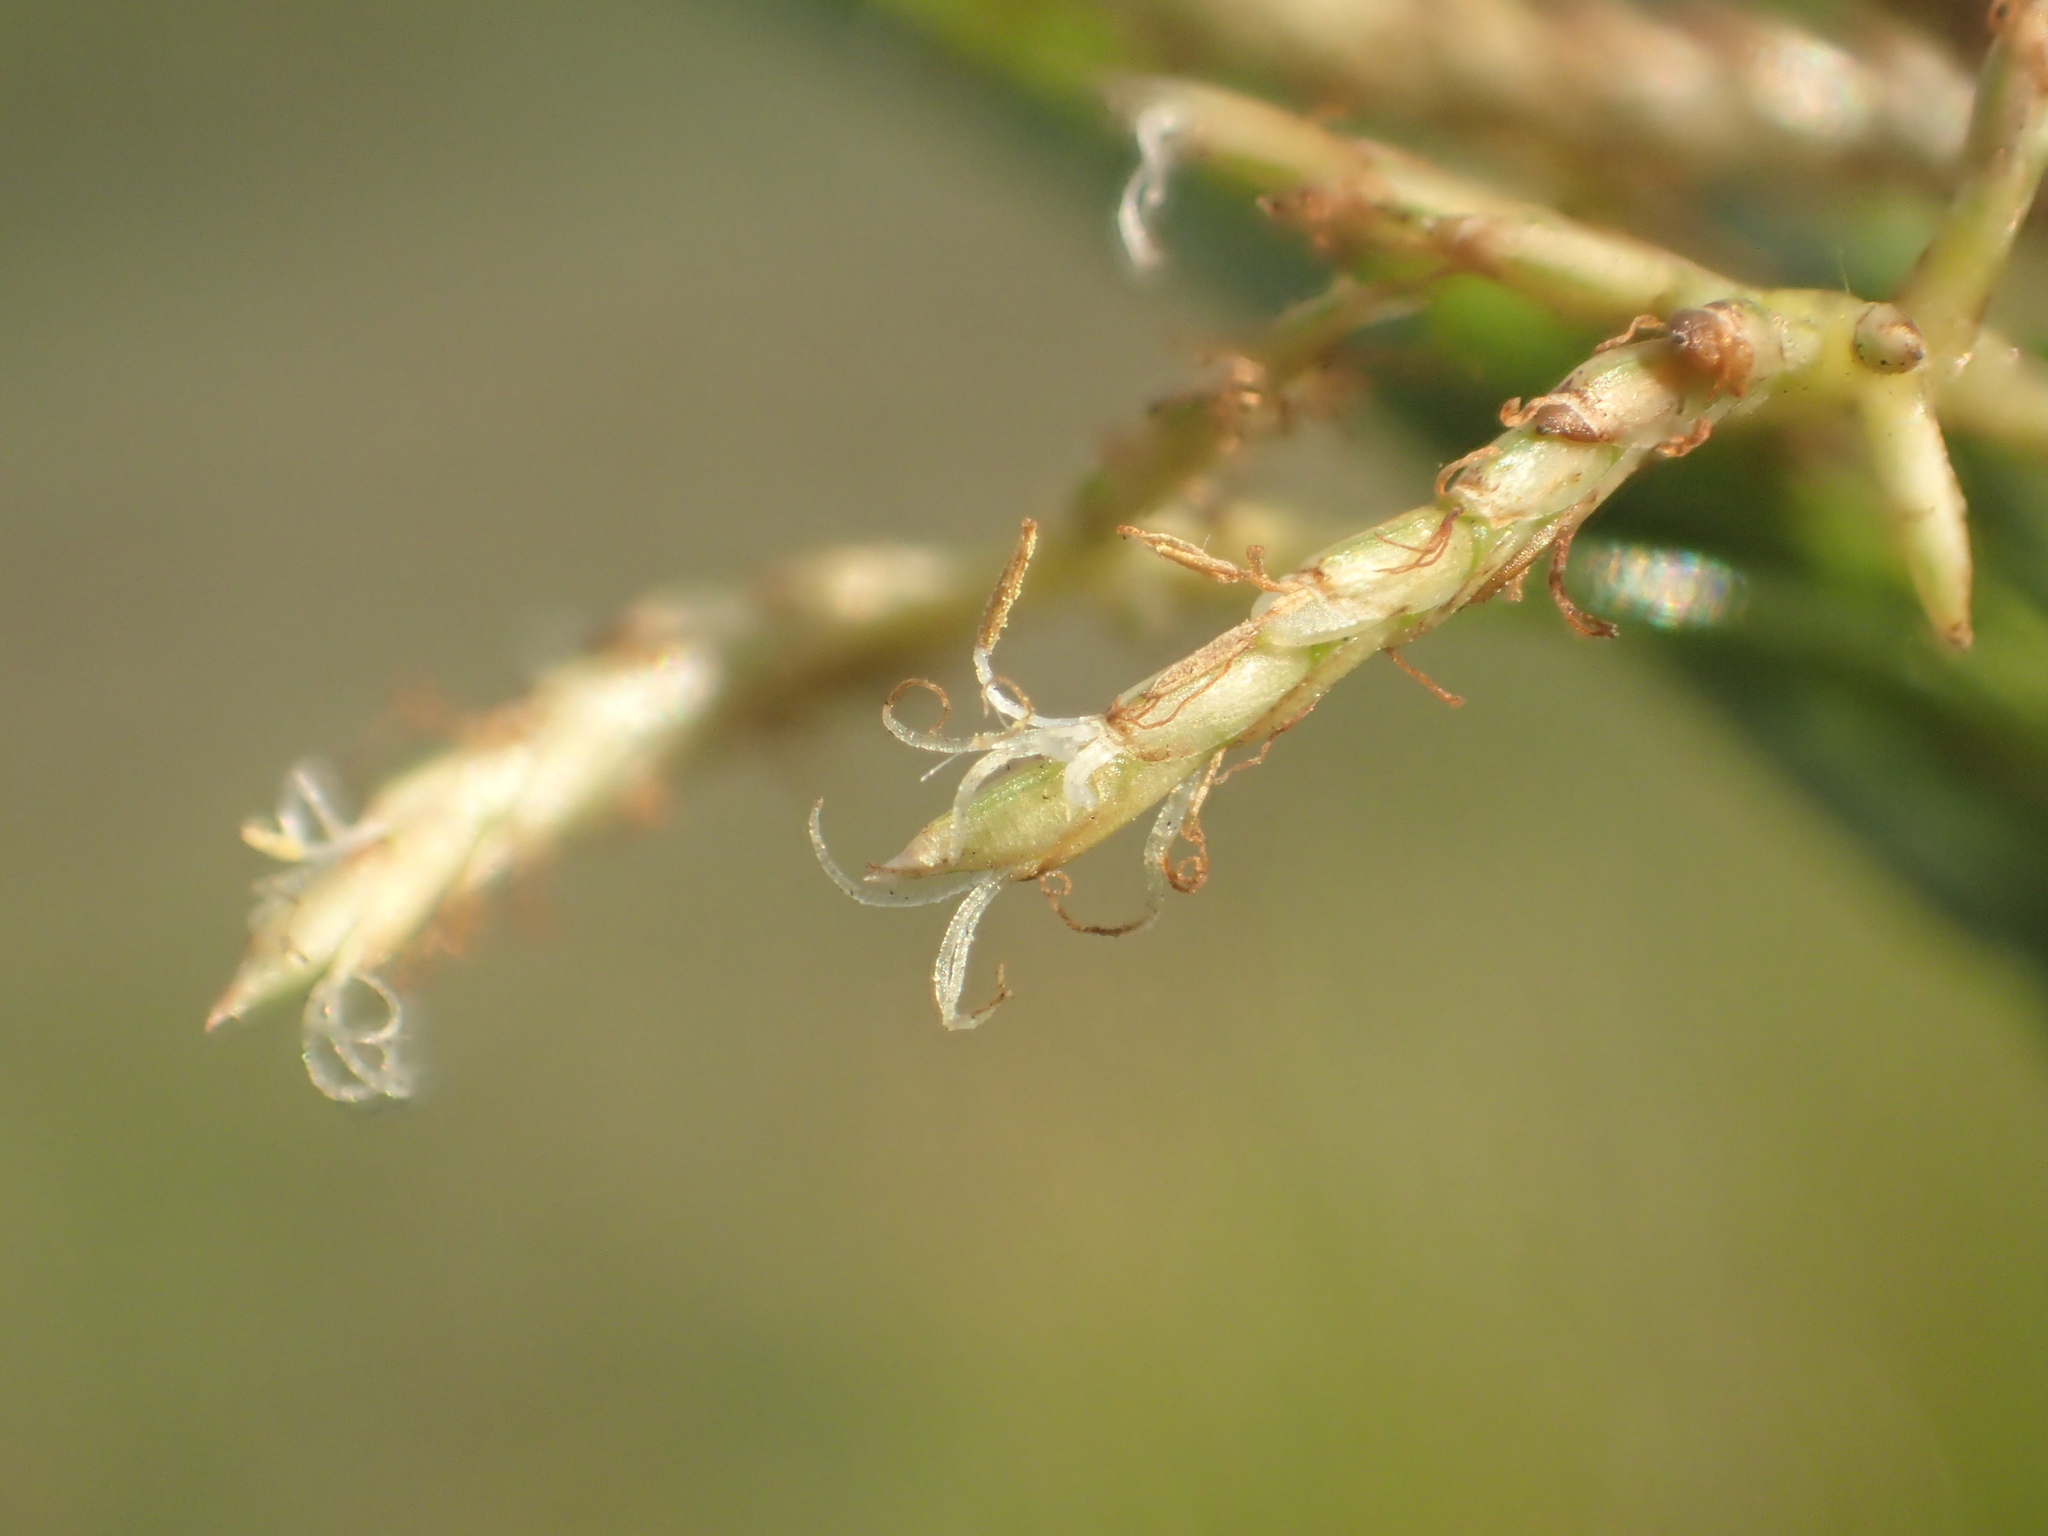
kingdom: Plantae
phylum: Tracheophyta
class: Liliopsida
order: Poales
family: Cyperaceae
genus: Cyperus
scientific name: Cyperus malaccensis
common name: Shichito matgrass
